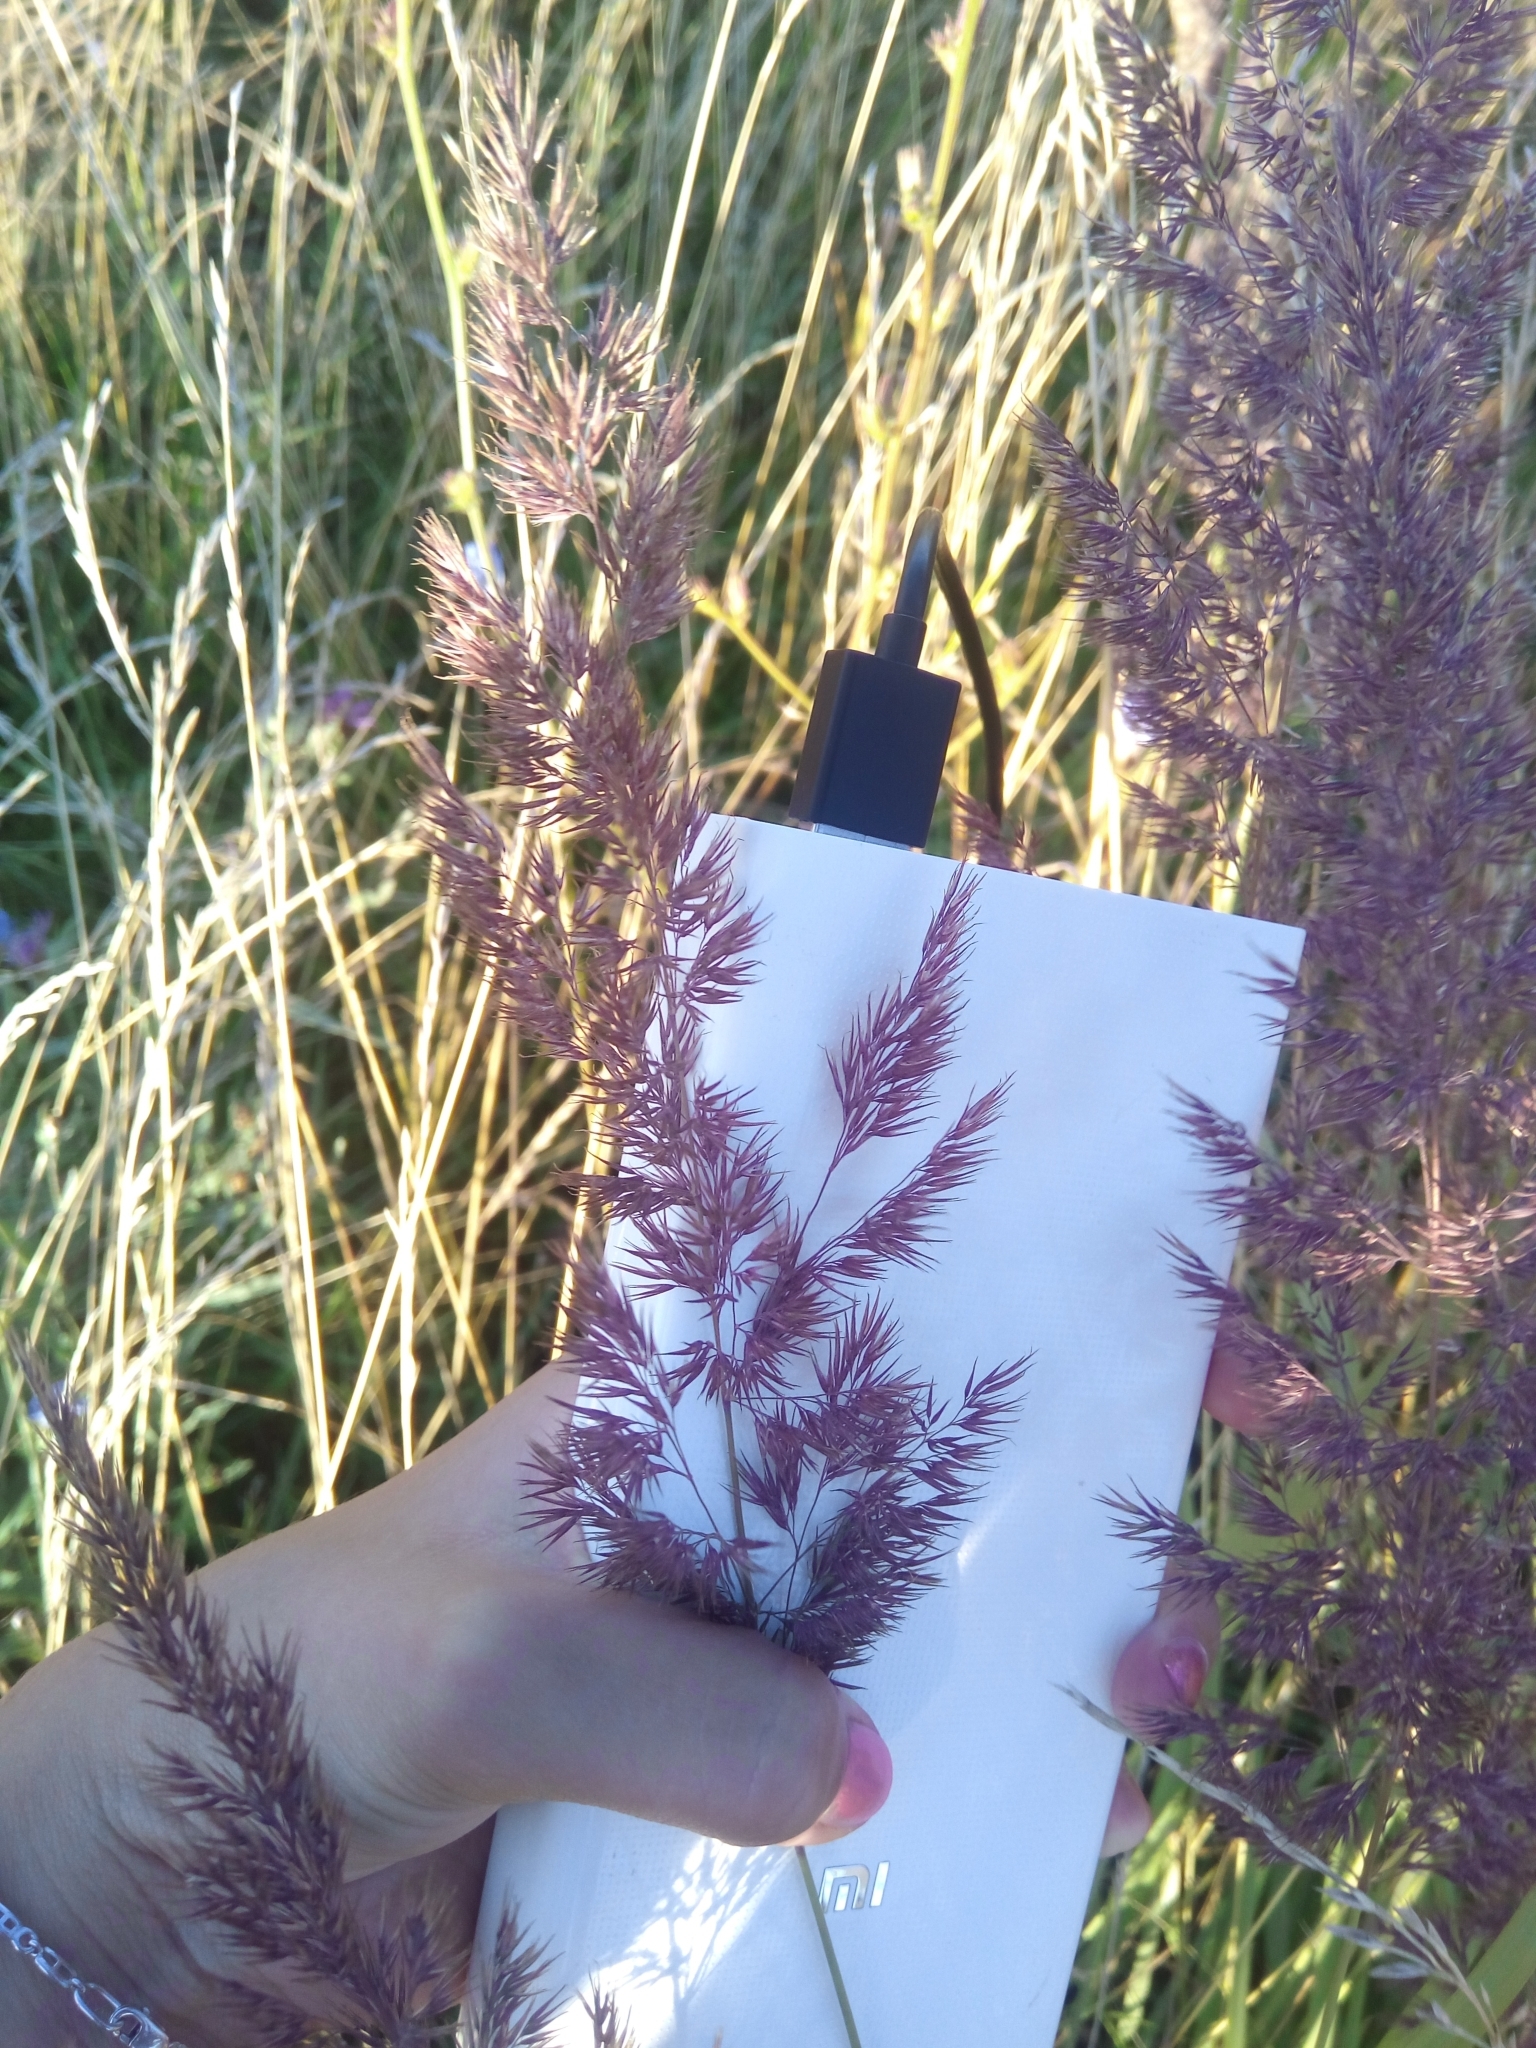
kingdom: Plantae
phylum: Tracheophyta
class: Liliopsida
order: Poales
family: Poaceae
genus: Calamagrostis
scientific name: Calamagrostis epigejos
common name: Wood small-reed
